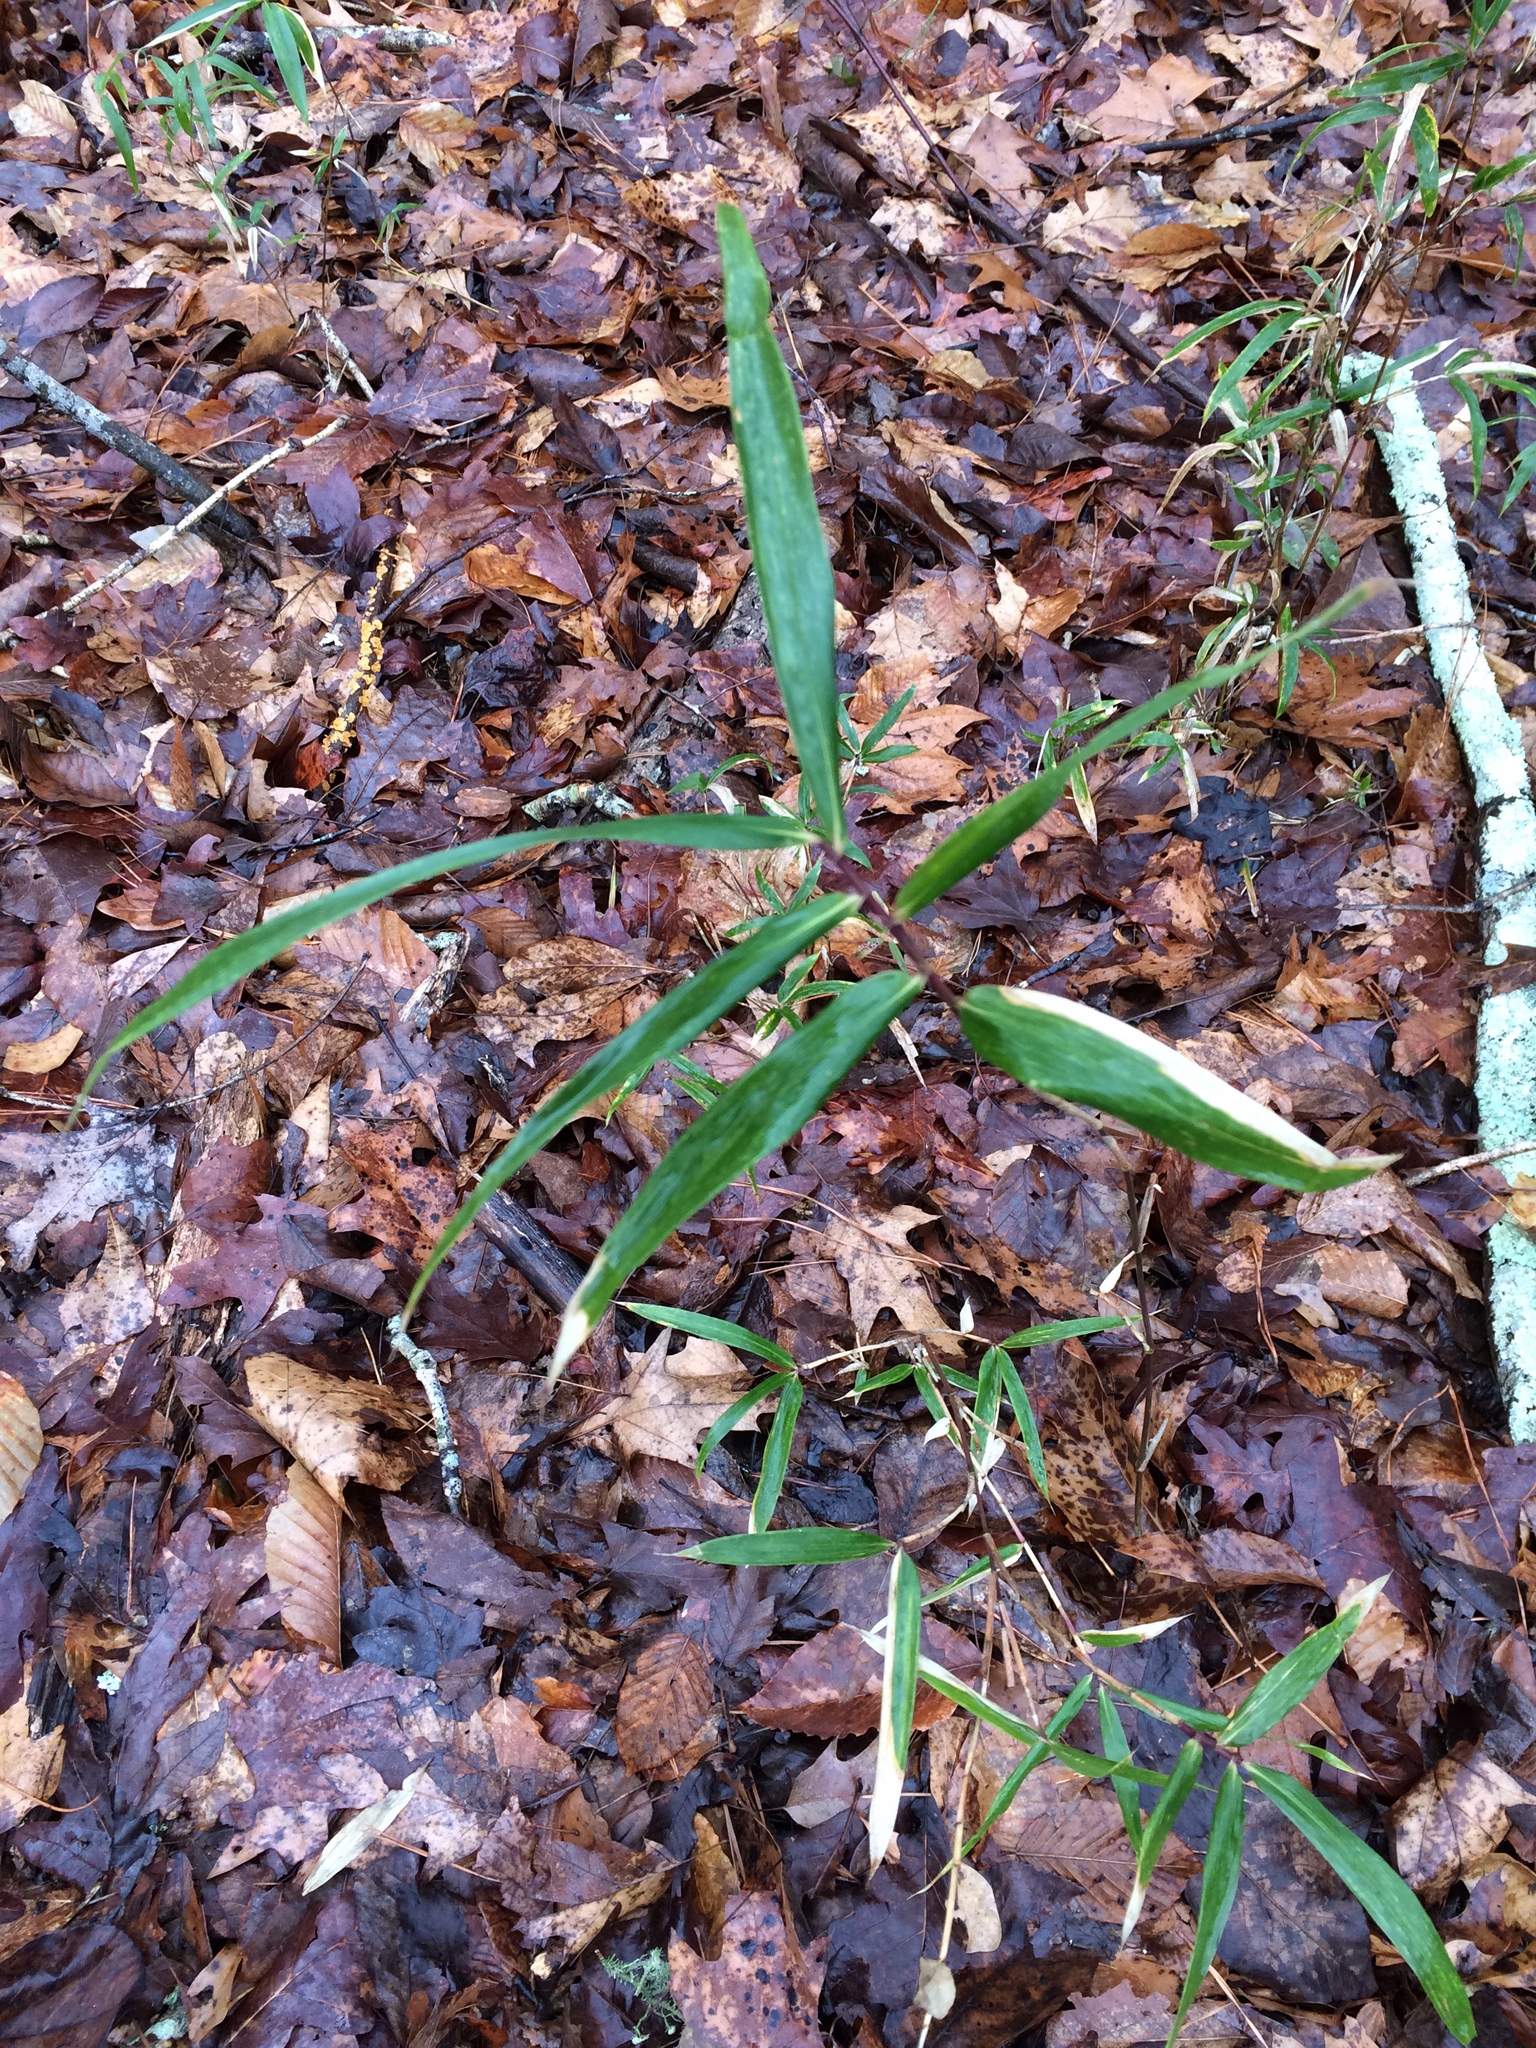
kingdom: Plantae
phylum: Tracheophyta
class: Liliopsida
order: Poales
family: Poaceae
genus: Arundinaria
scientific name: Arundinaria gigantea
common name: Giant cane
